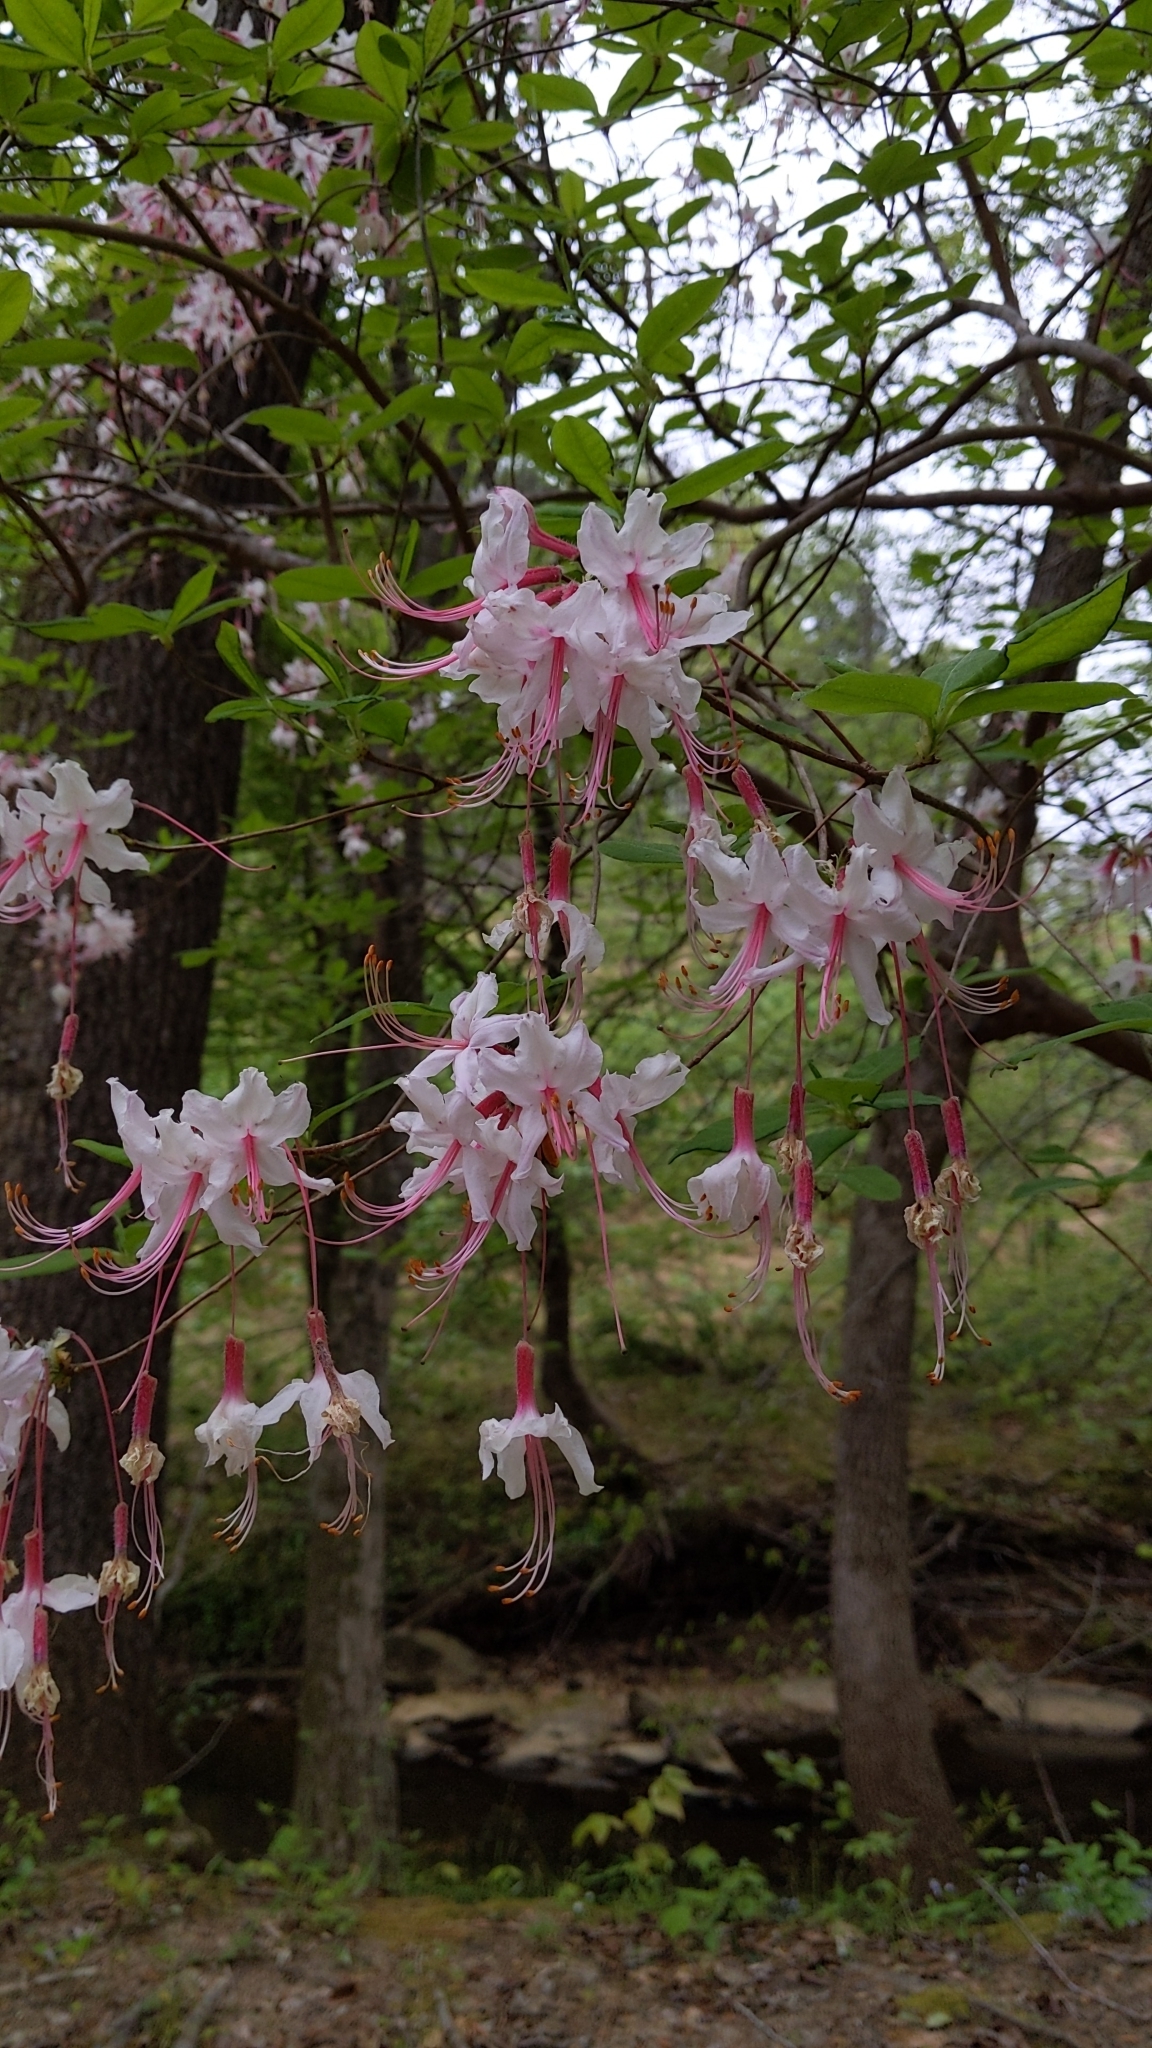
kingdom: Plantae
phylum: Tracheophyta
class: Magnoliopsida
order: Ericales
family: Ericaceae
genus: Rhododendron
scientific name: Rhododendron periclymenoides
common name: Election-pink
